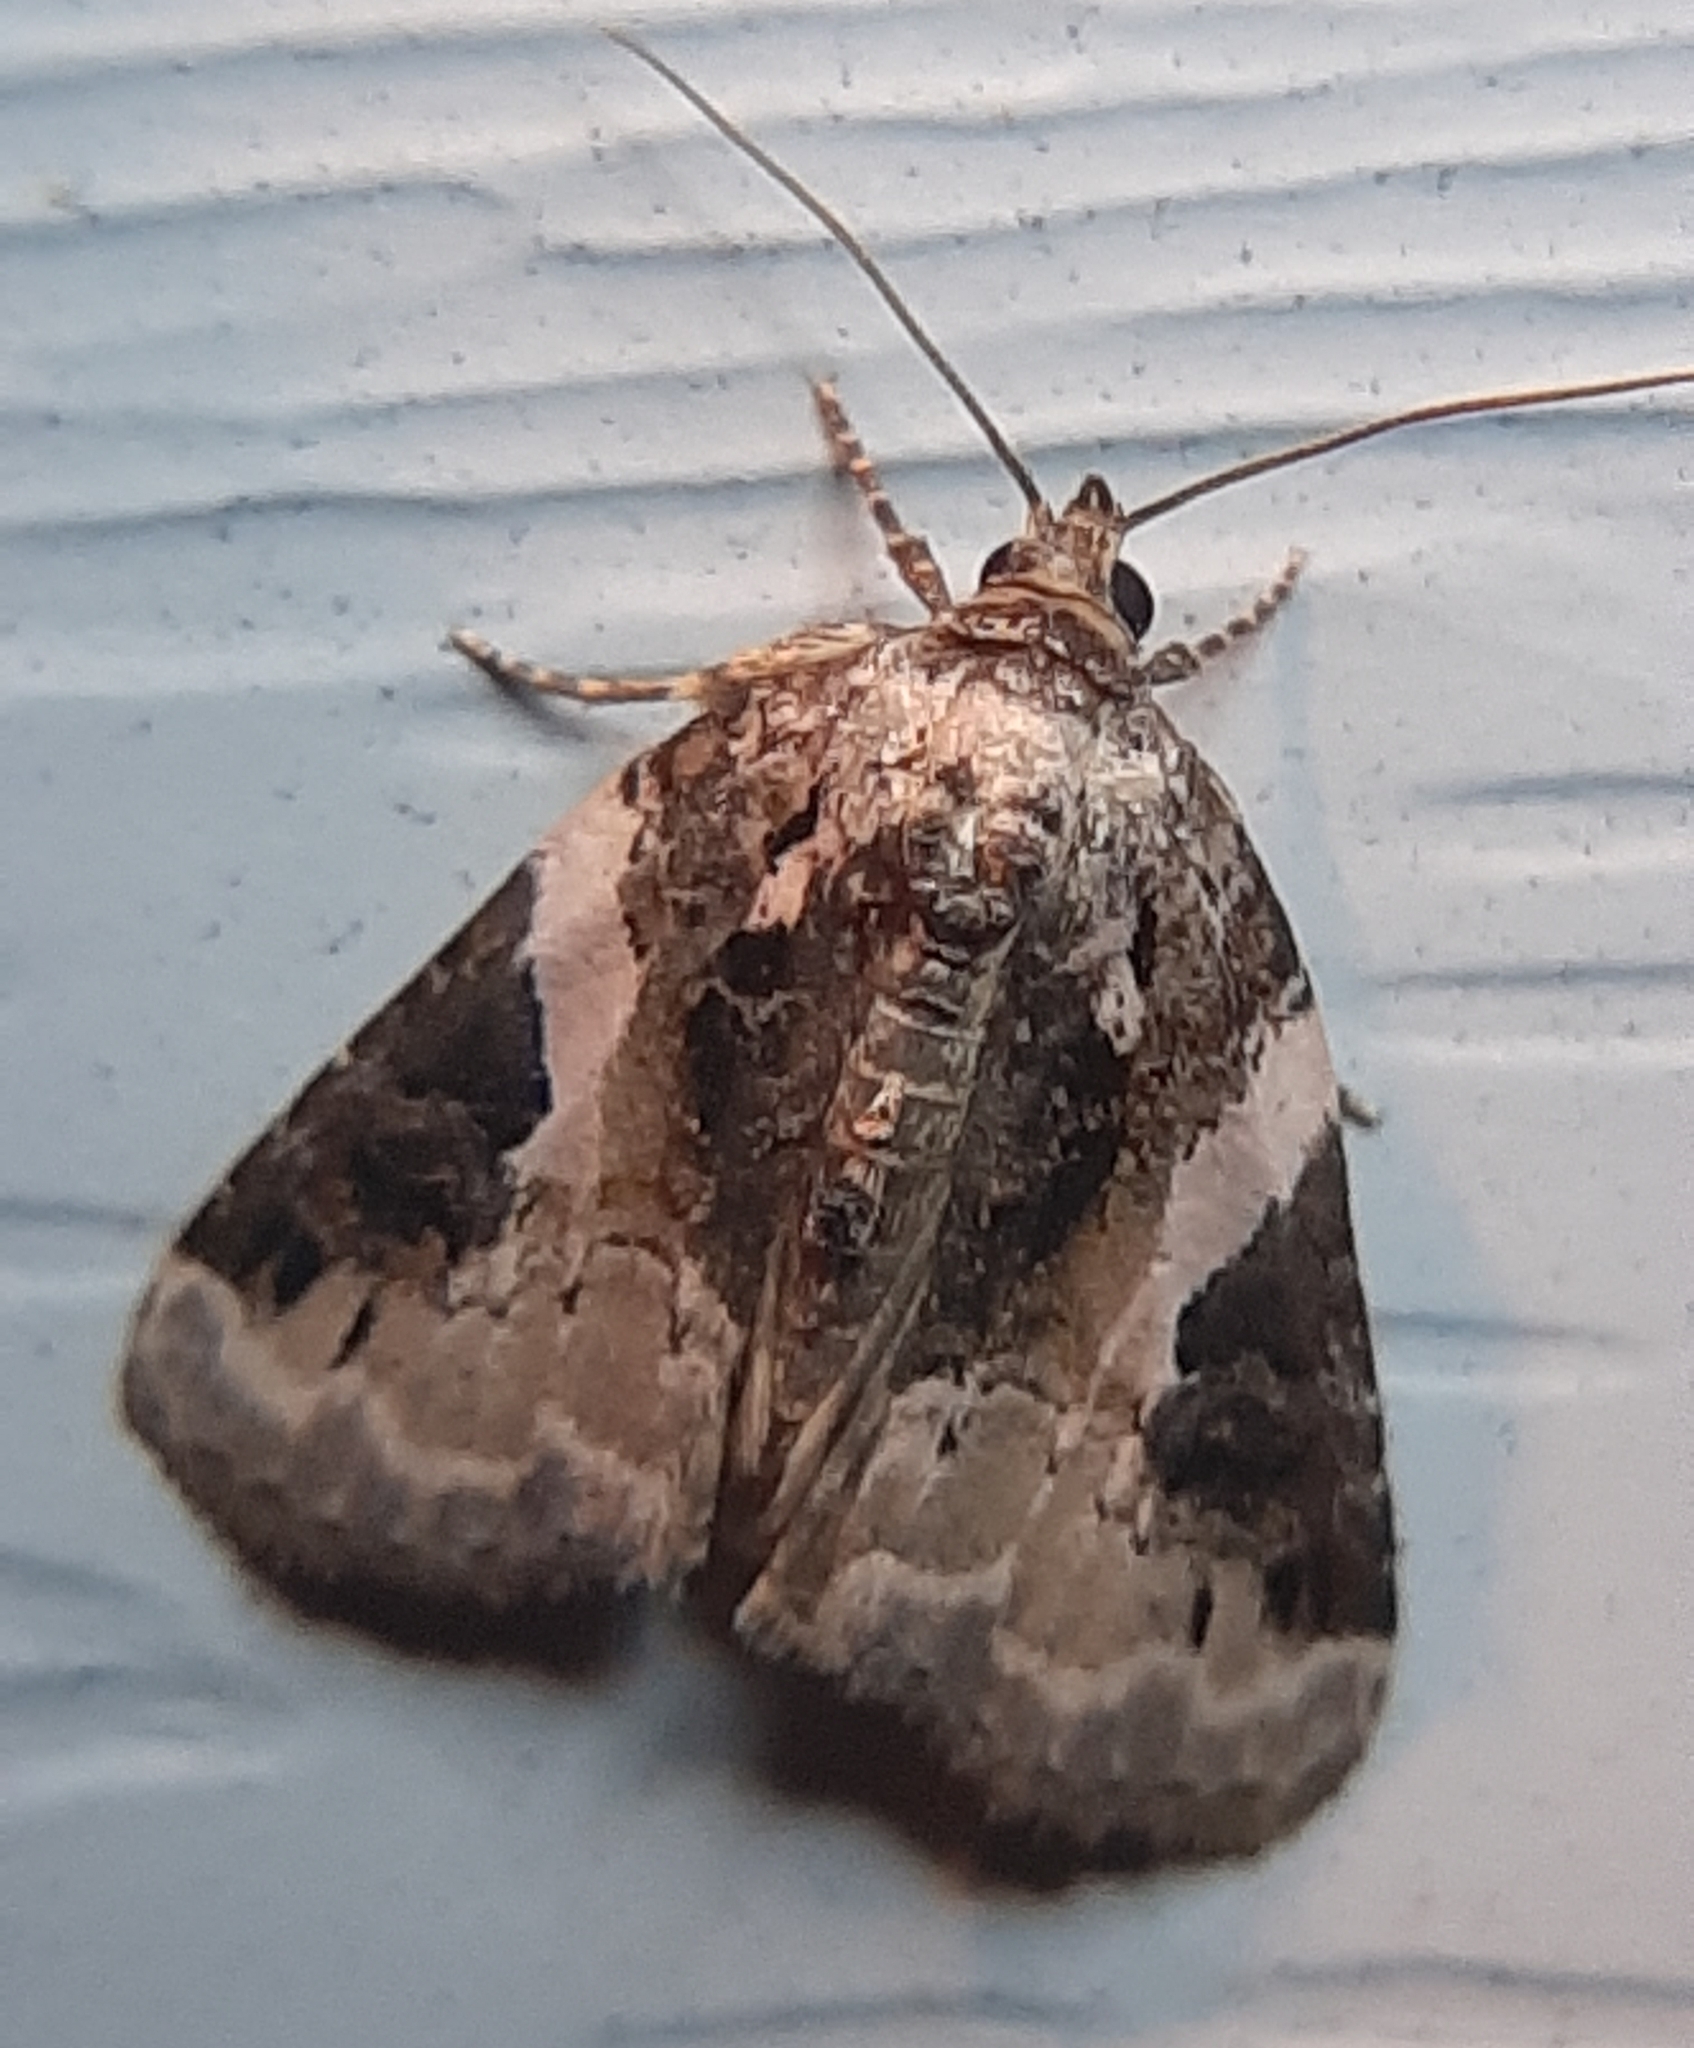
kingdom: Animalia
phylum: Arthropoda
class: Insecta
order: Lepidoptera
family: Noctuidae
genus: Pseudeustrotia
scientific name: Pseudeustrotia carneola
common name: Pink-barred lithacodia moth
